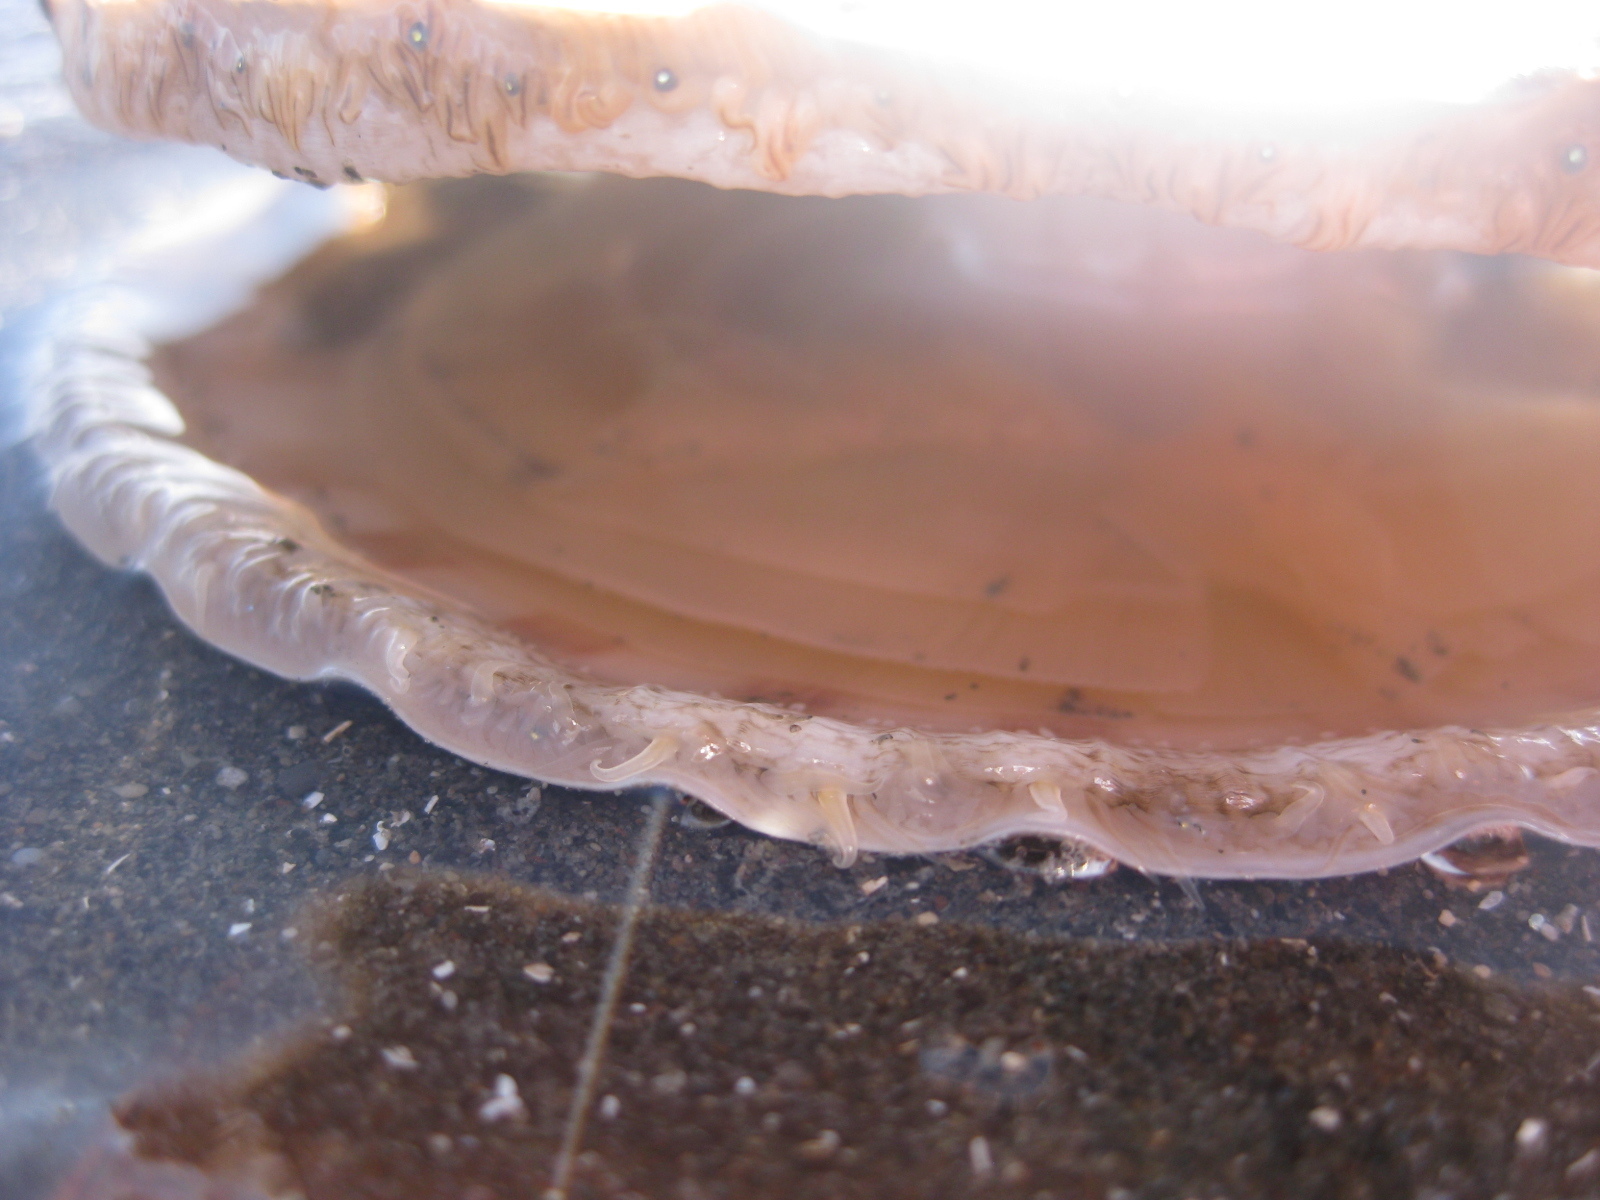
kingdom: Animalia
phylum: Mollusca
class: Bivalvia
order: Pectinida
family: Pectinidae
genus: Pecten
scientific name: Pecten novaezelandiae
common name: New zealand scallop
